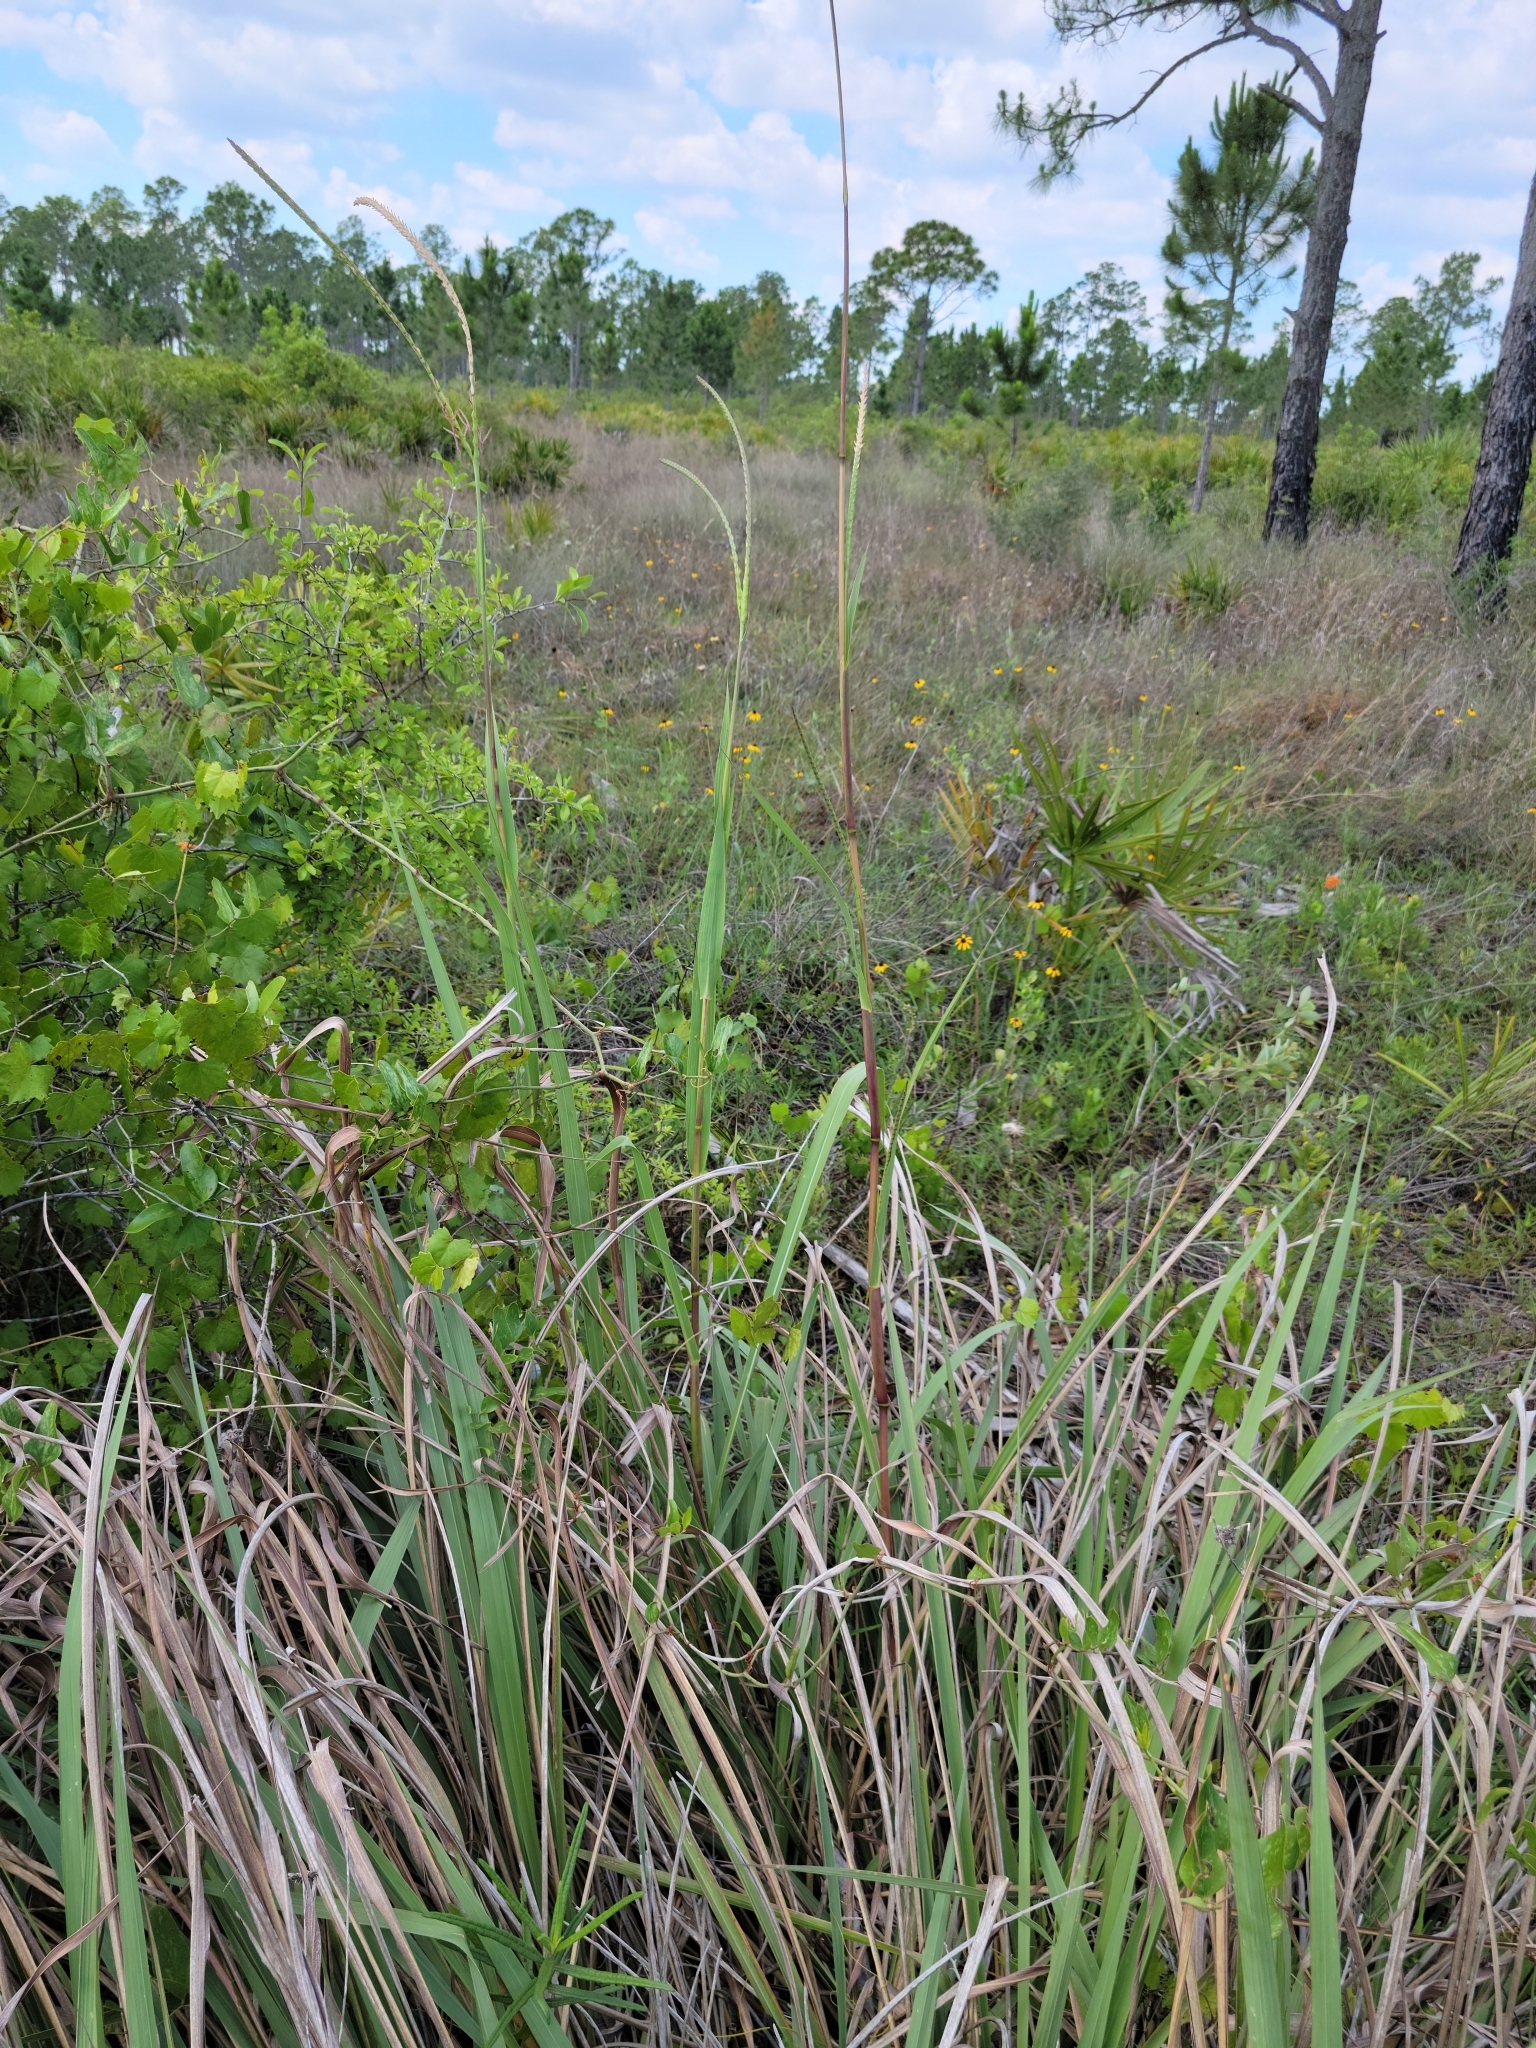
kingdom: Plantae
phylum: Tracheophyta
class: Liliopsida
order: Poales
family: Poaceae
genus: Tripsacum
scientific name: Tripsacum dactyloides
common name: Buffalo-grass
